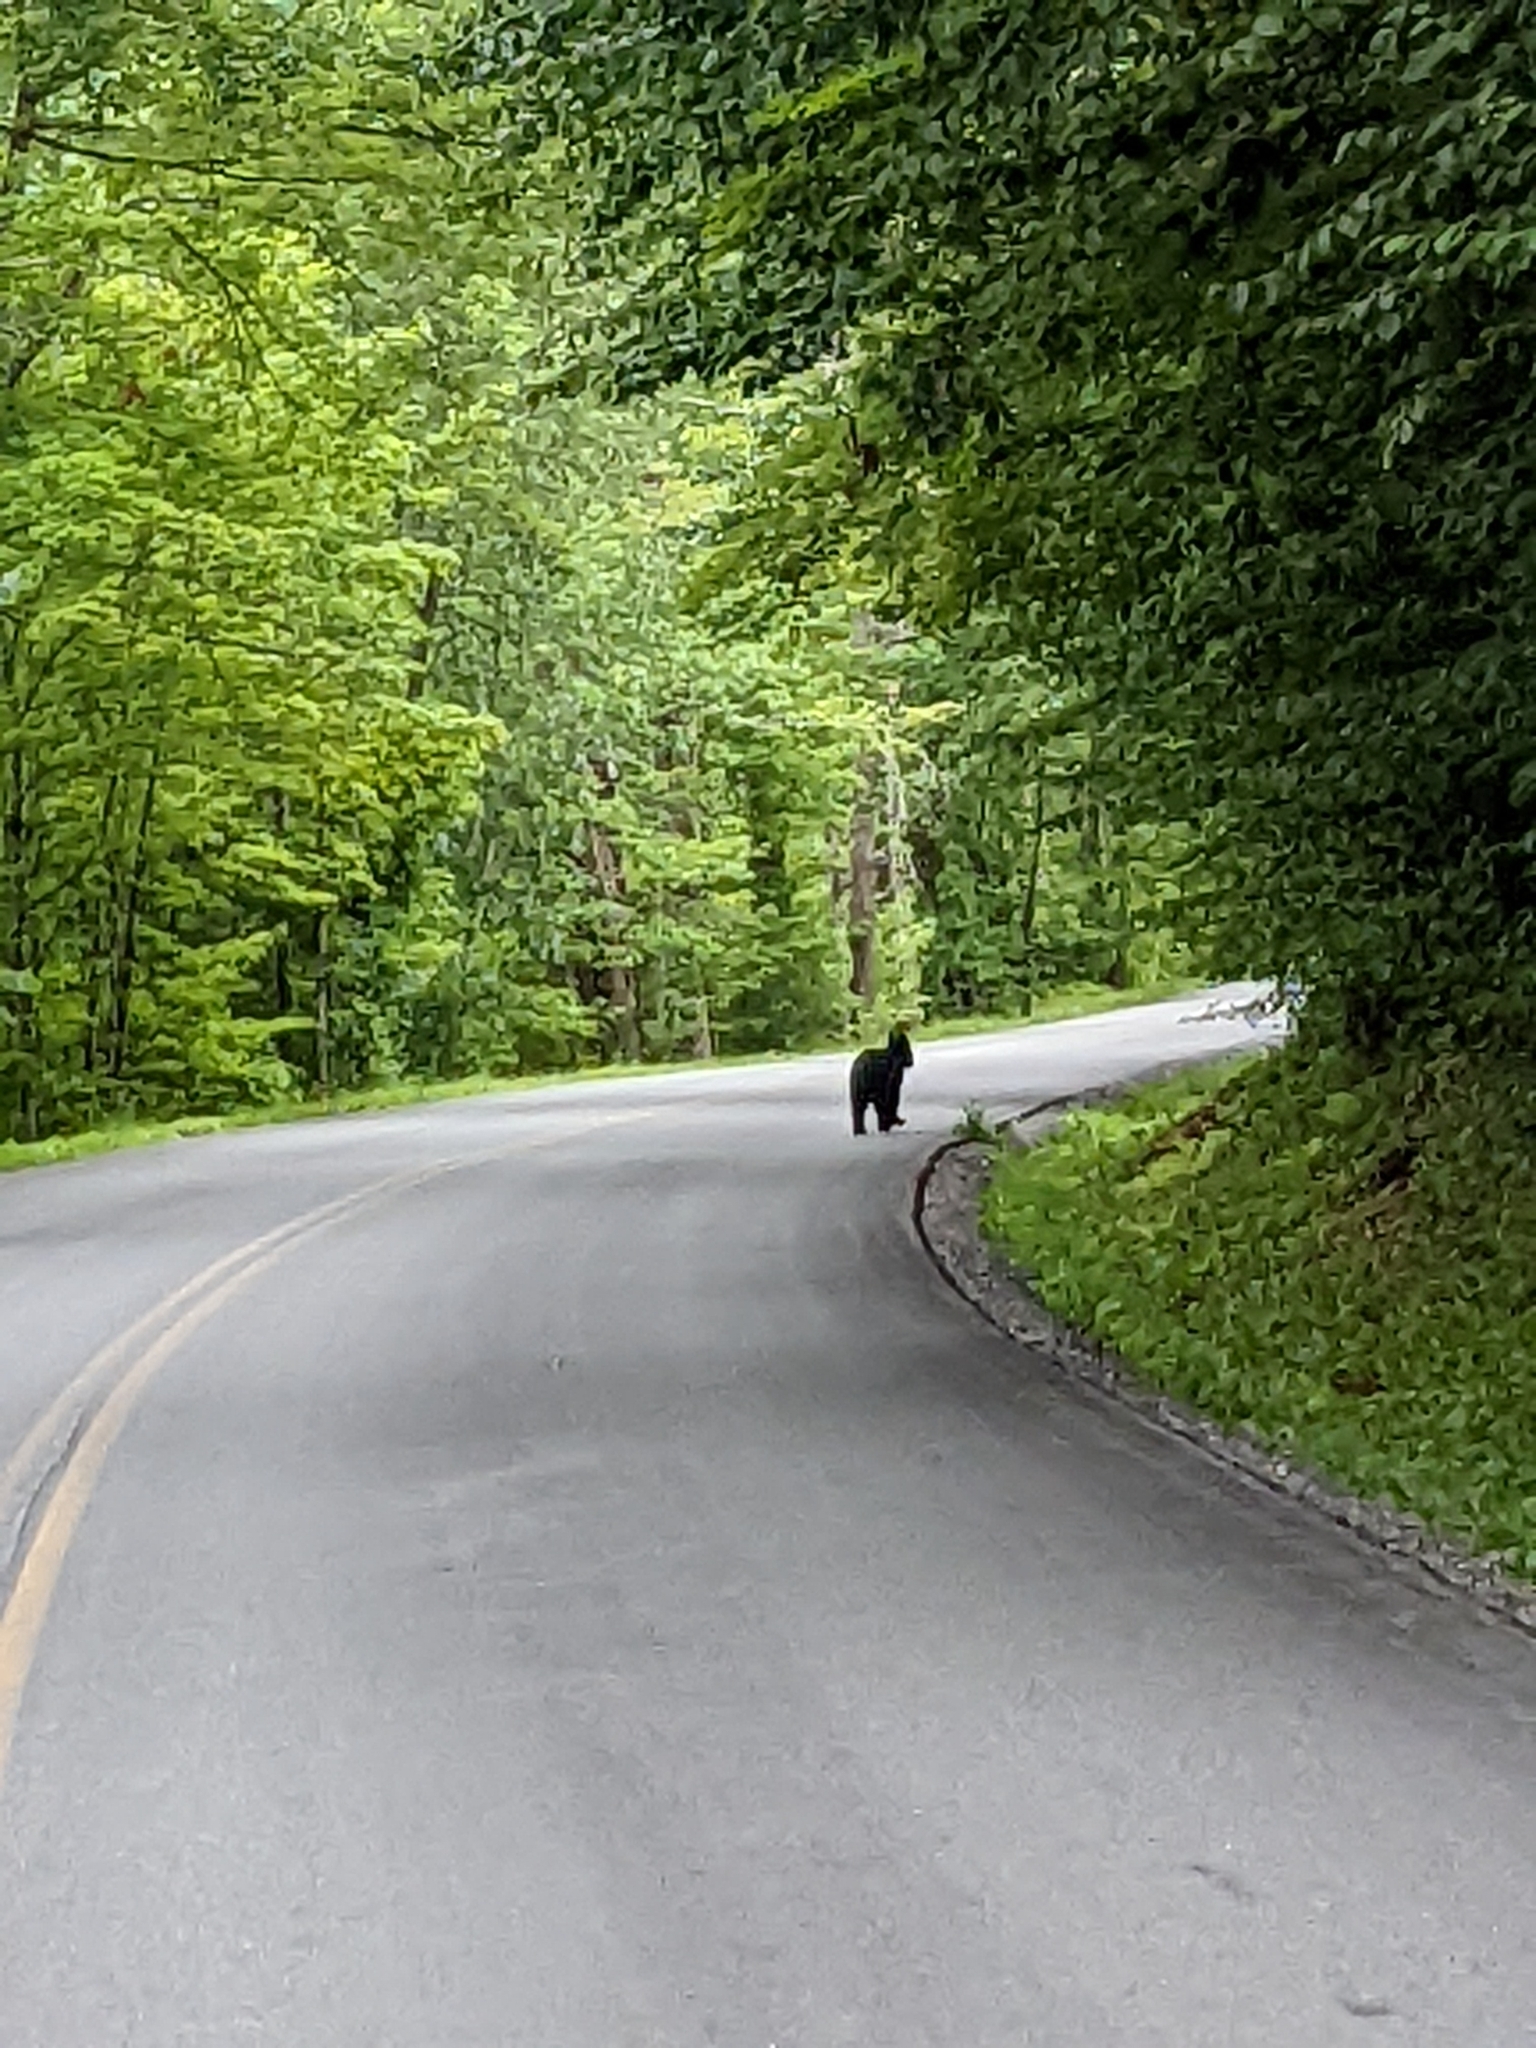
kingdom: Animalia
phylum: Chordata
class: Mammalia
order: Carnivora
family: Ursidae
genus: Ursus
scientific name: Ursus americanus
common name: American black bear
